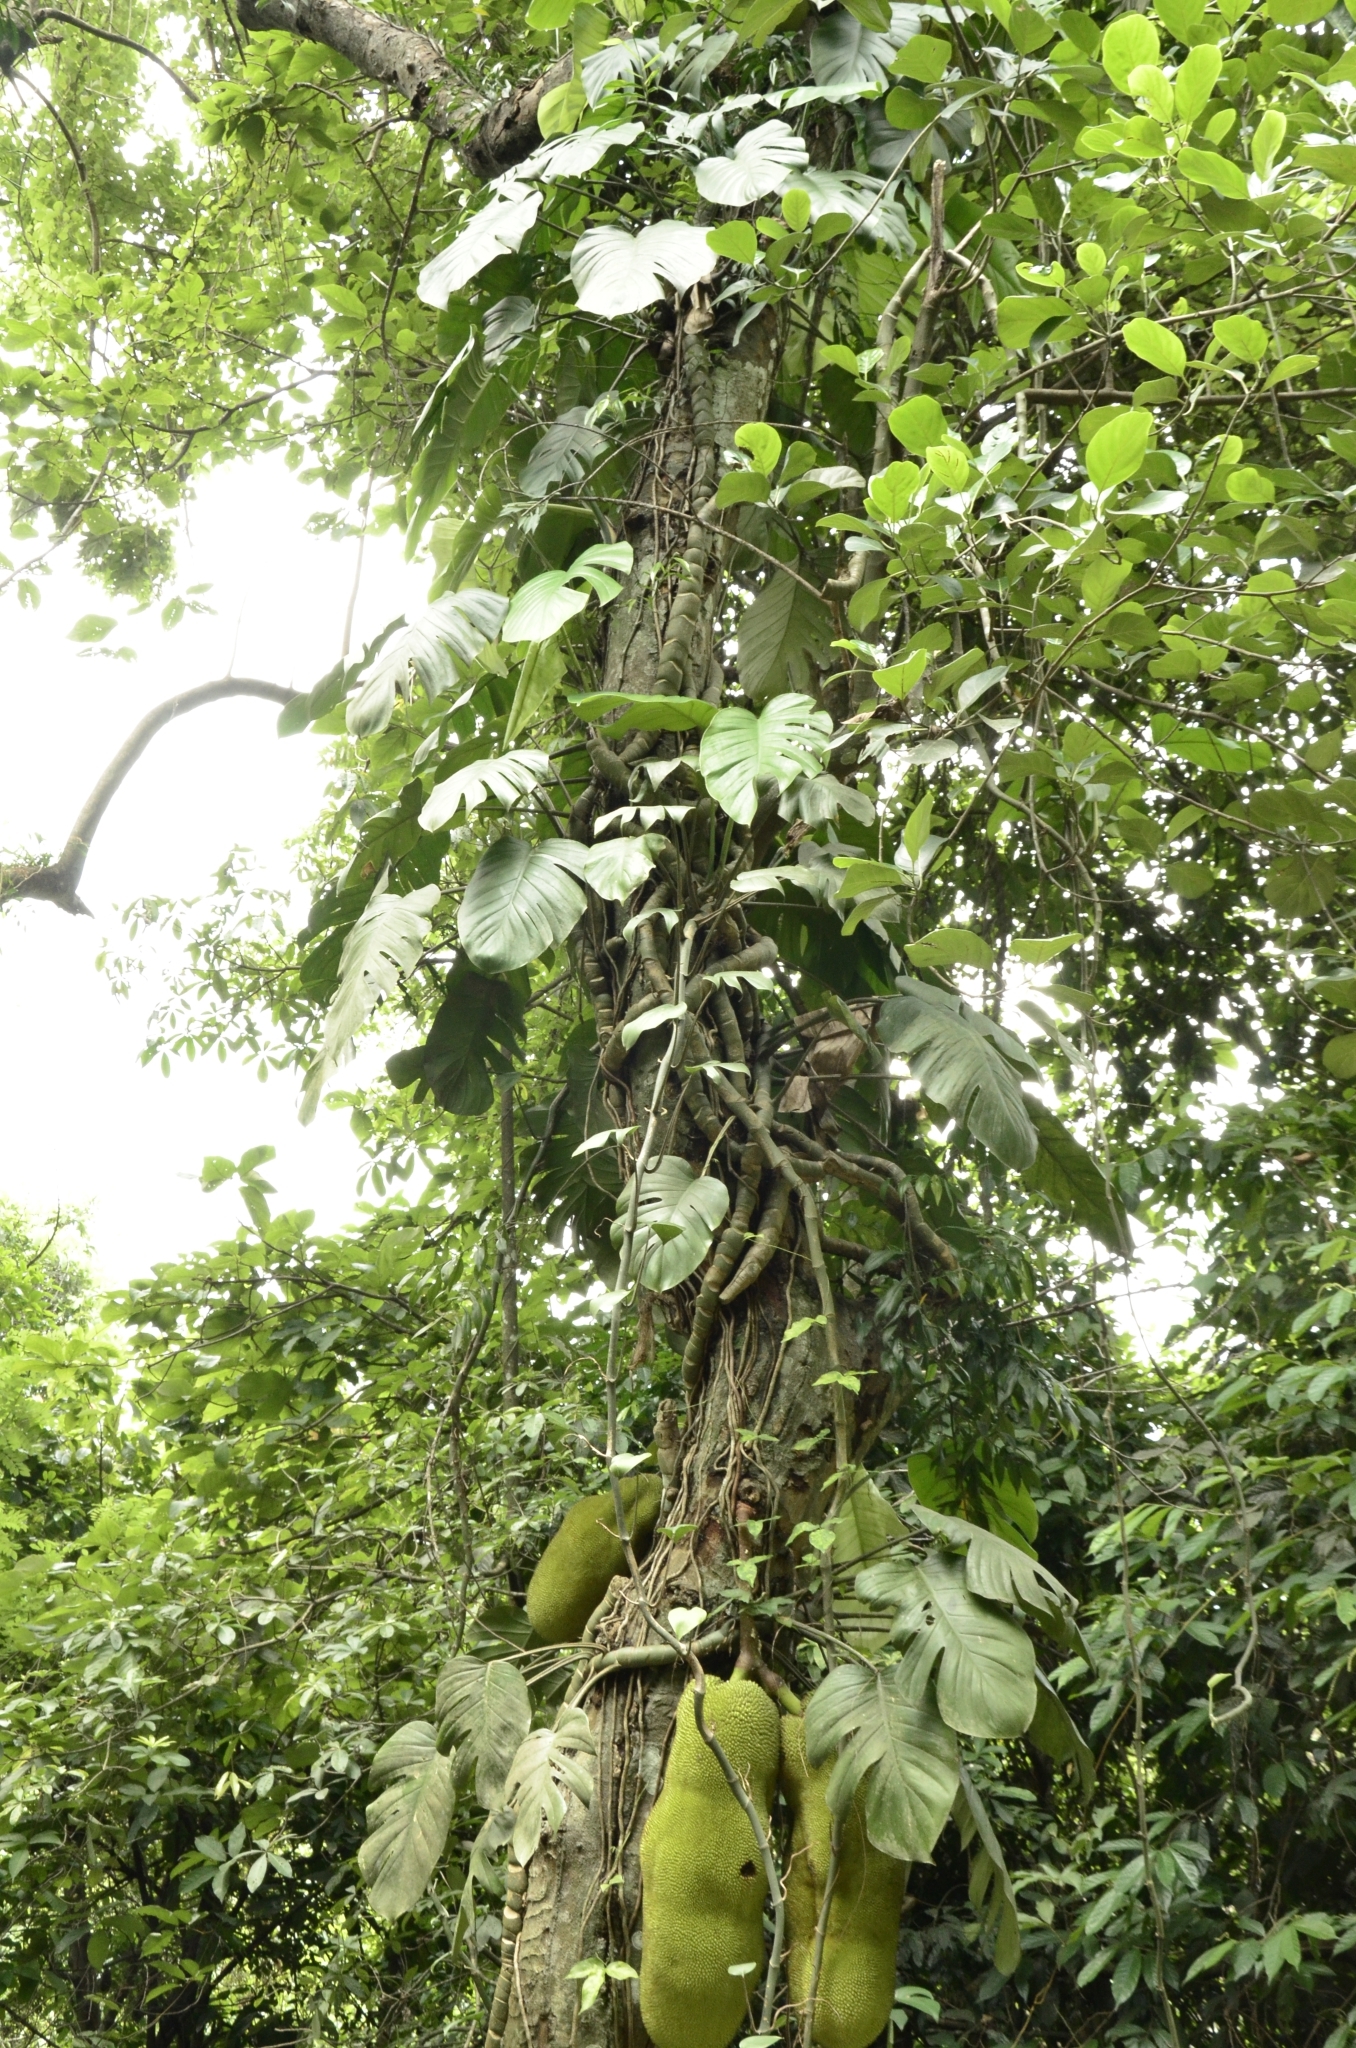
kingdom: Plantae
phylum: Tracheophyta
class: Liliopsida
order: Alismatales
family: Araceae
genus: Rhaphidophora
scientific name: Rhaphidophora pertusa
